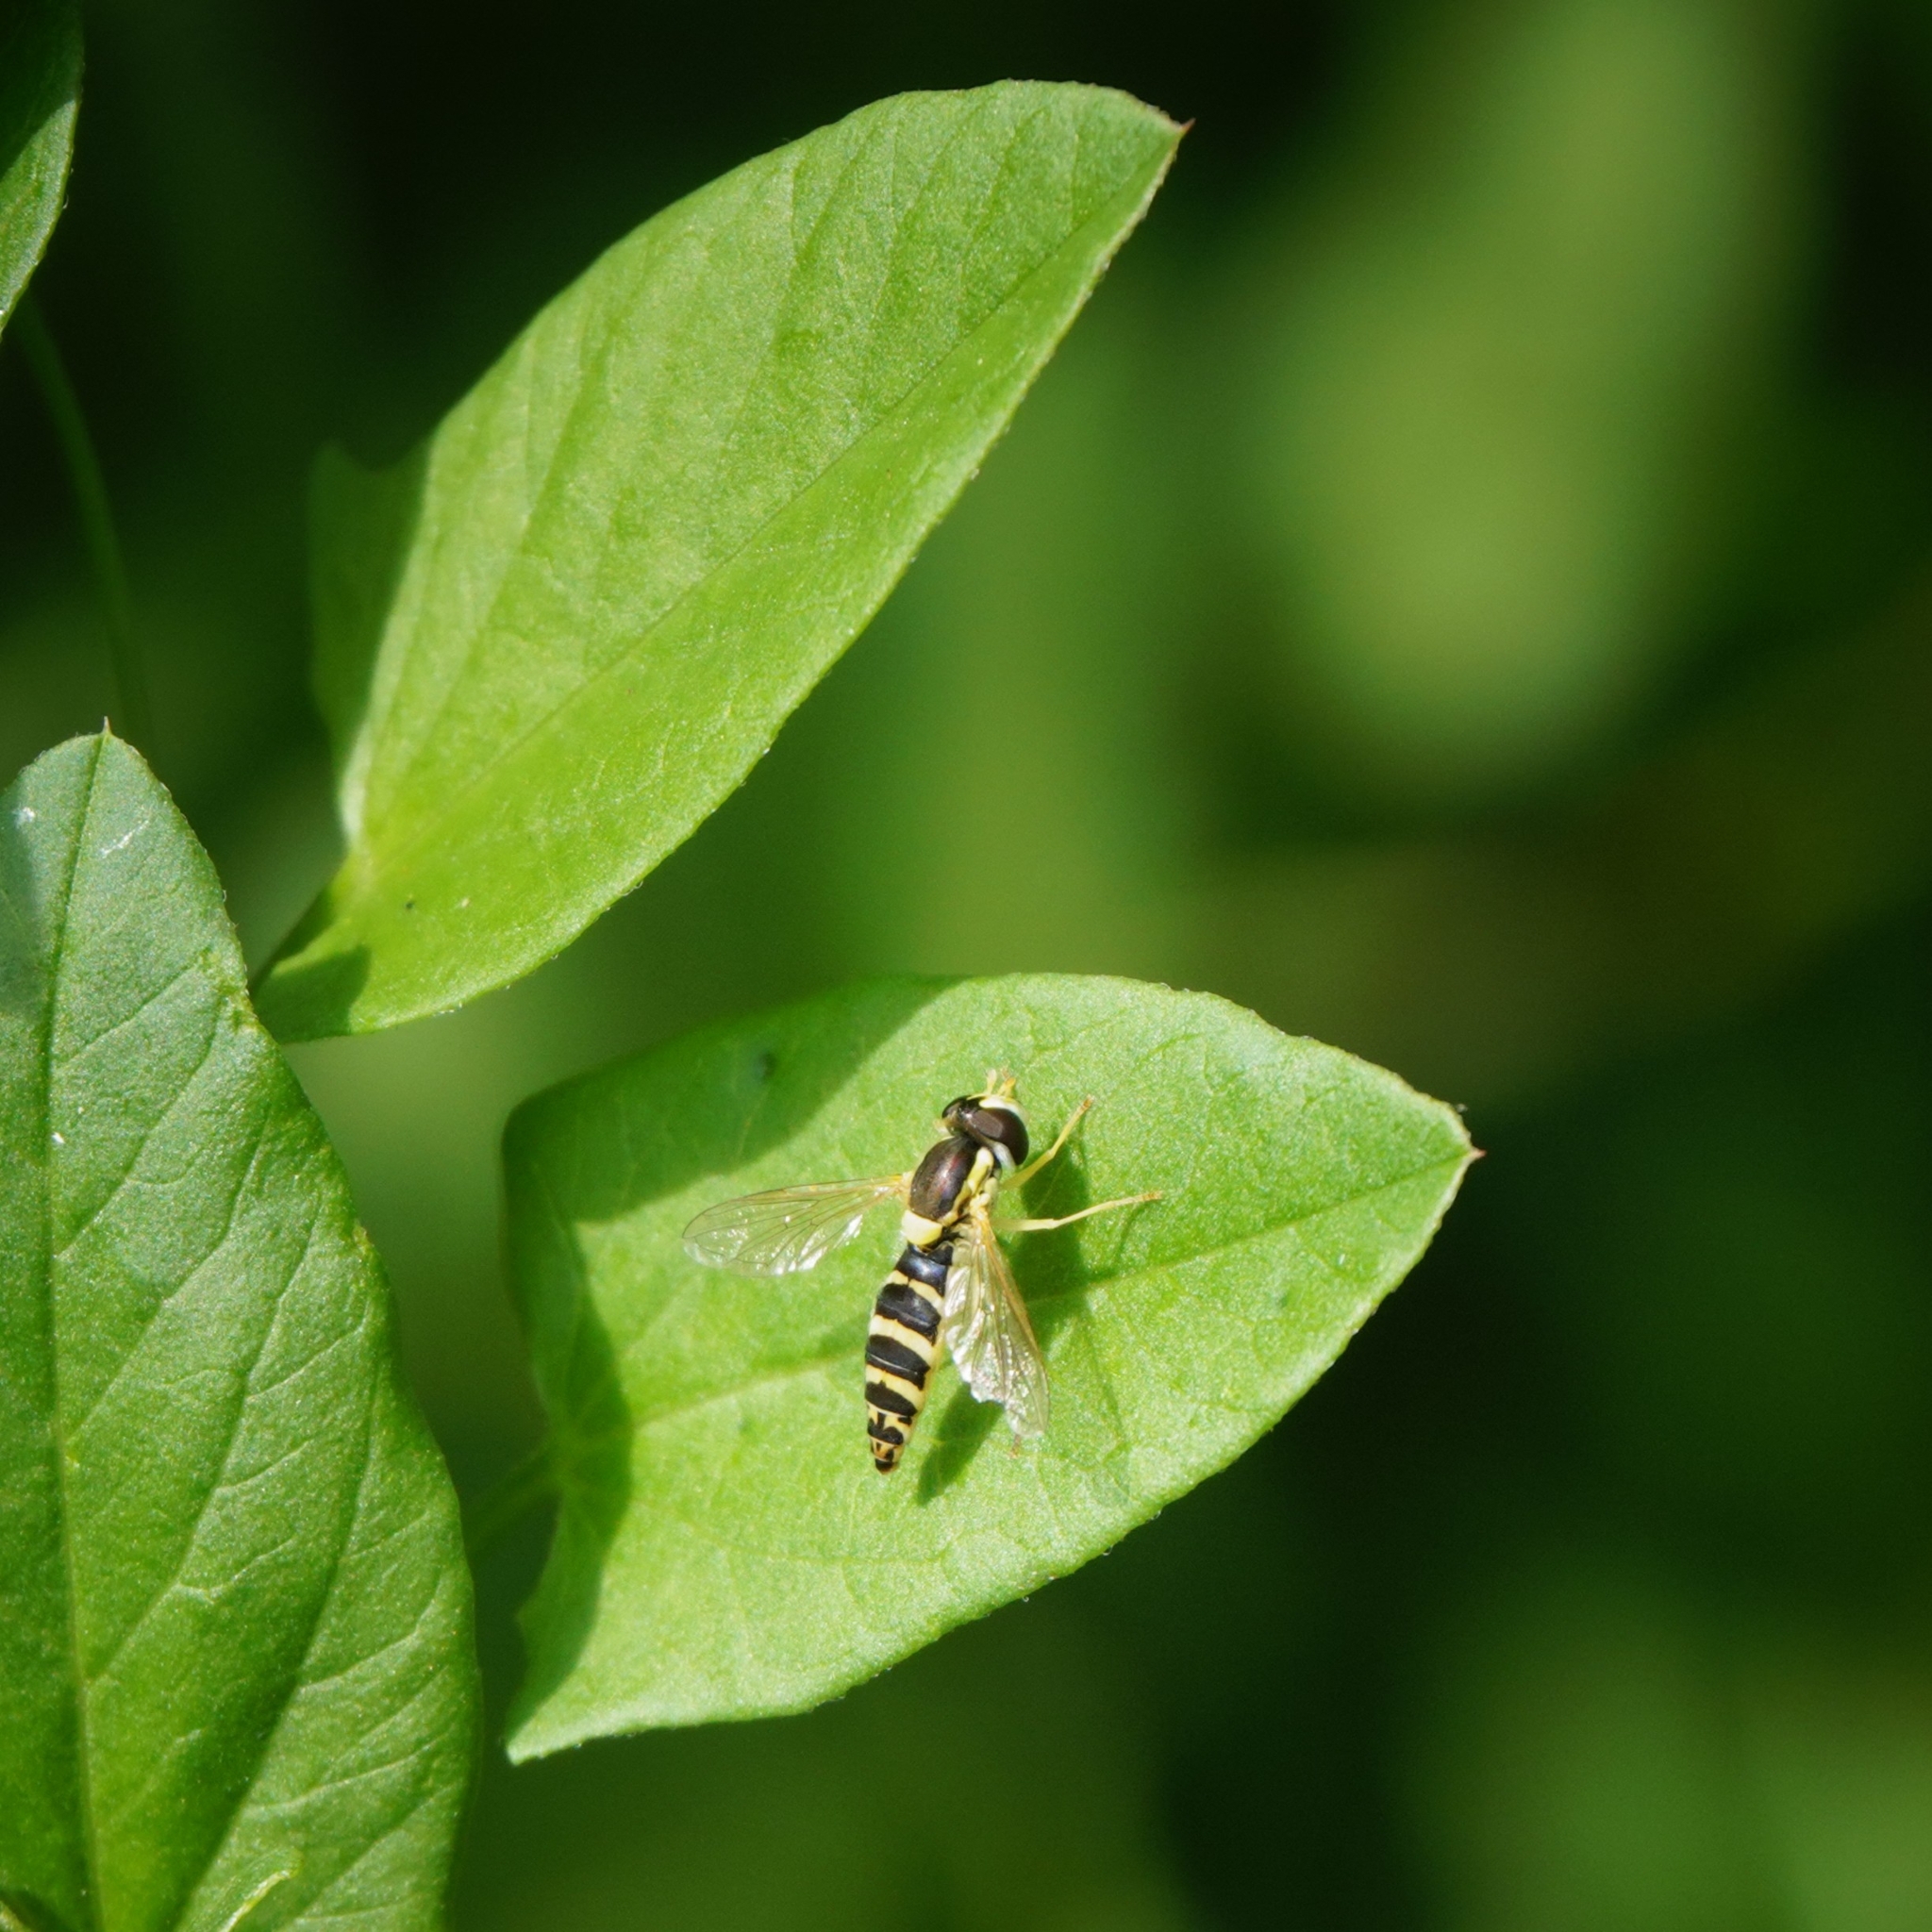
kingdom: Animalia
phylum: Arthropoda
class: Insecta
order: Diptera
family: Syrphidae
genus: Sphaerophoria
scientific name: Sphaerophoria
